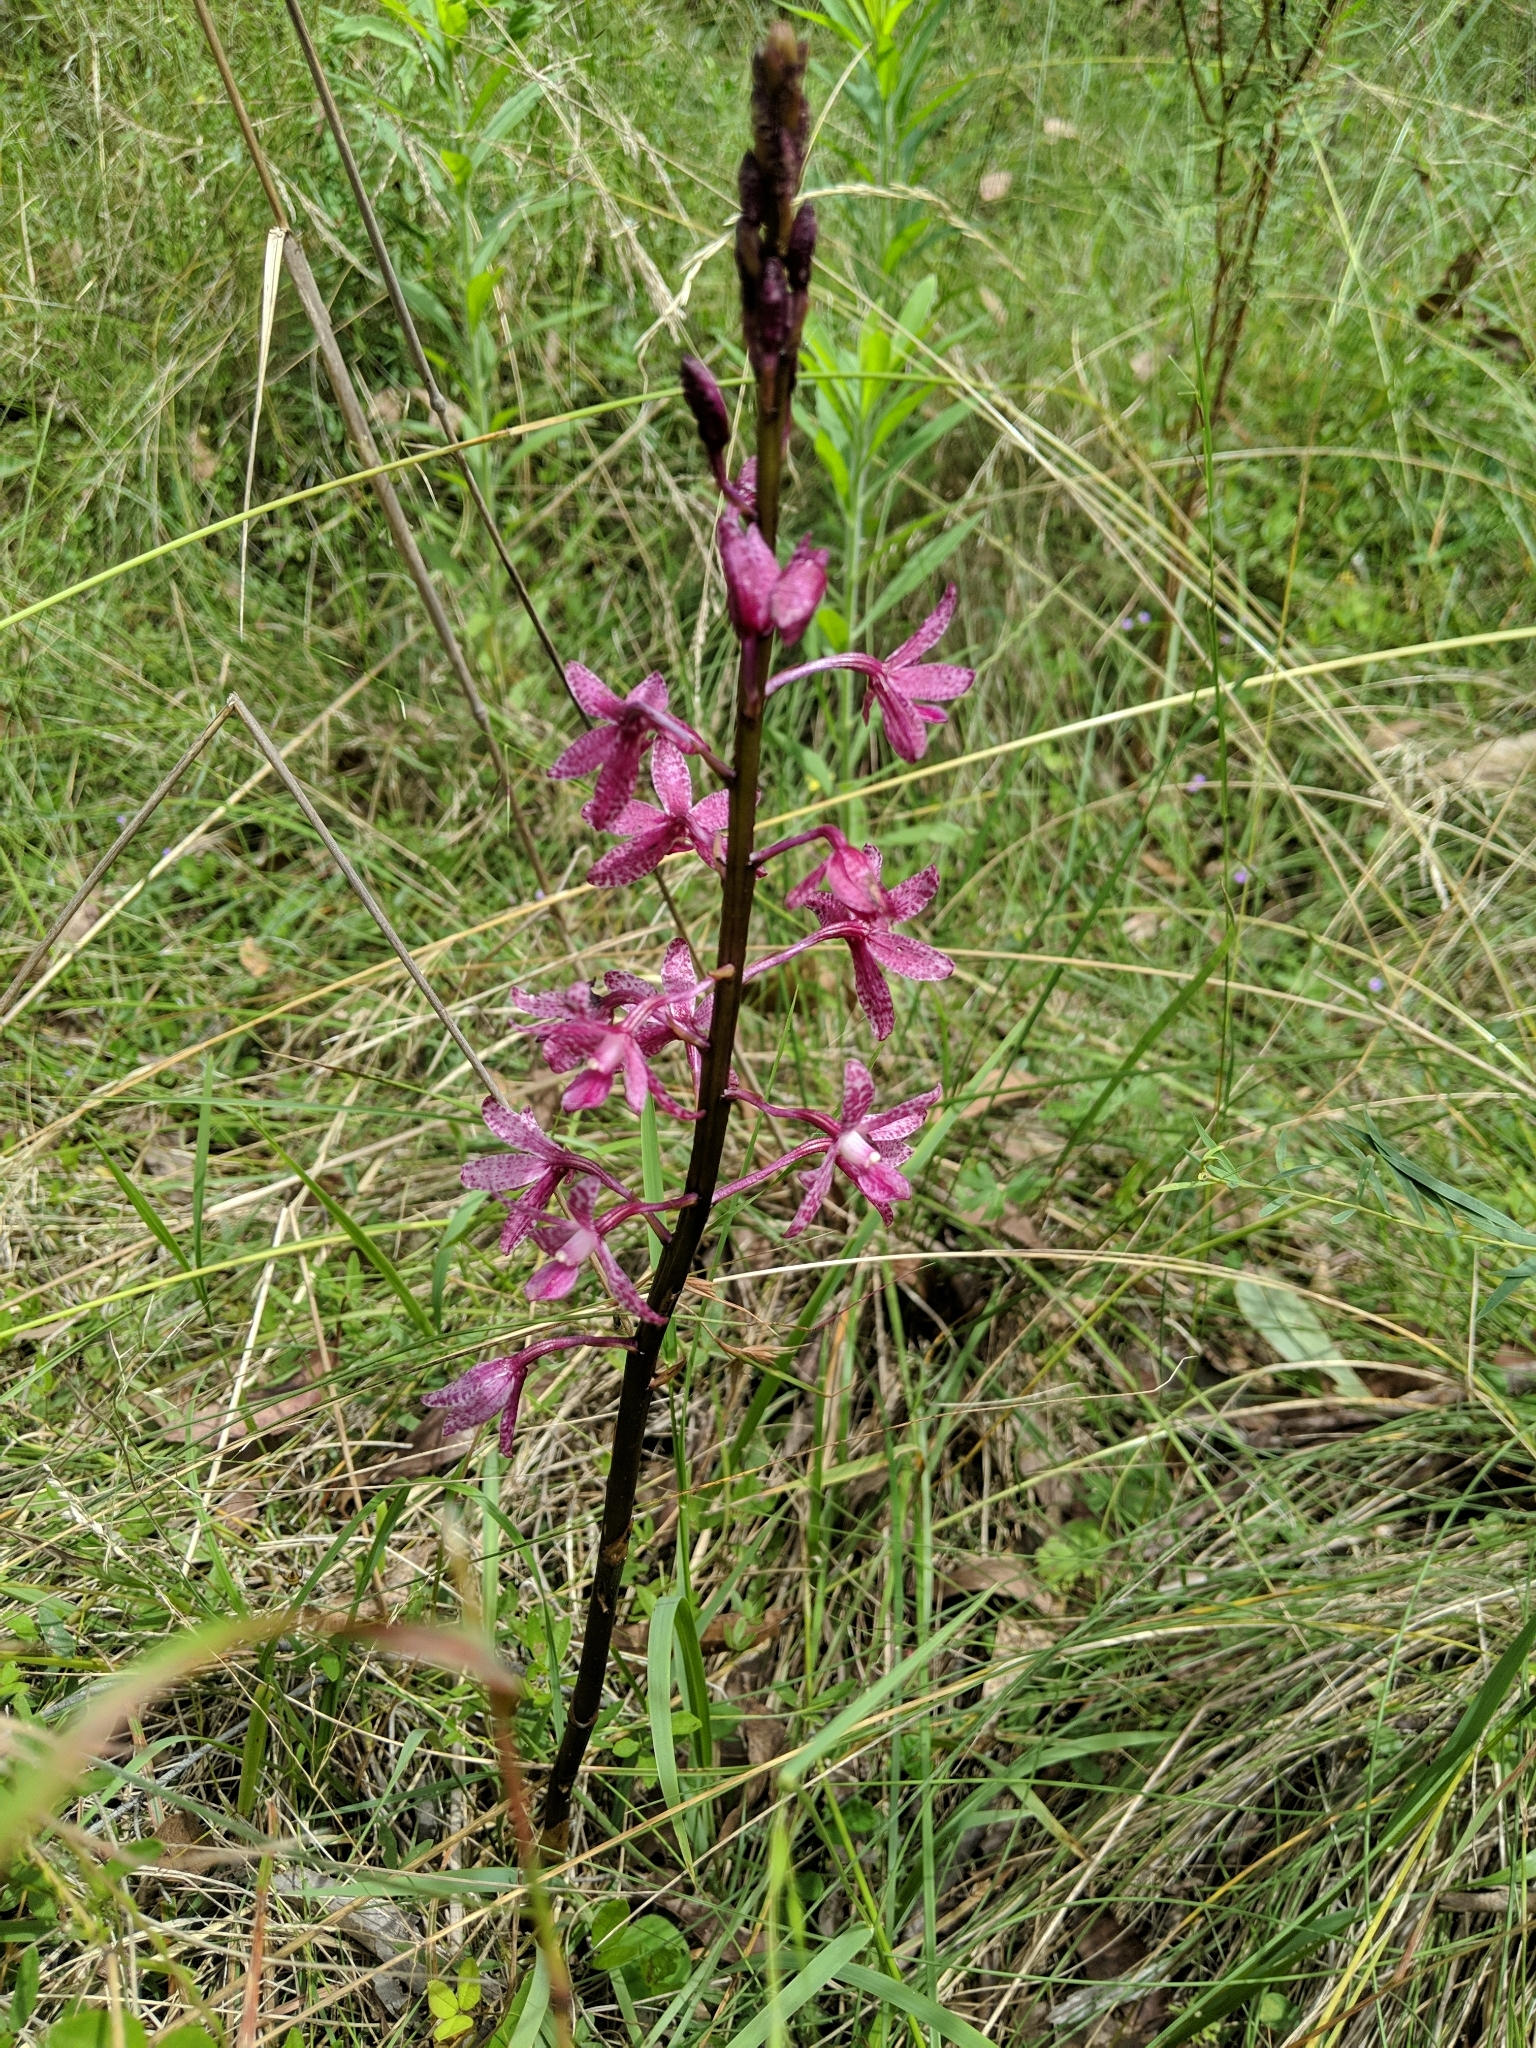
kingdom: Plantae
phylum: Tracheophyta
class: Liliopsida
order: Asparagales
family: Orchidaceae
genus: Dipodium
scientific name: Dipodium roseum
